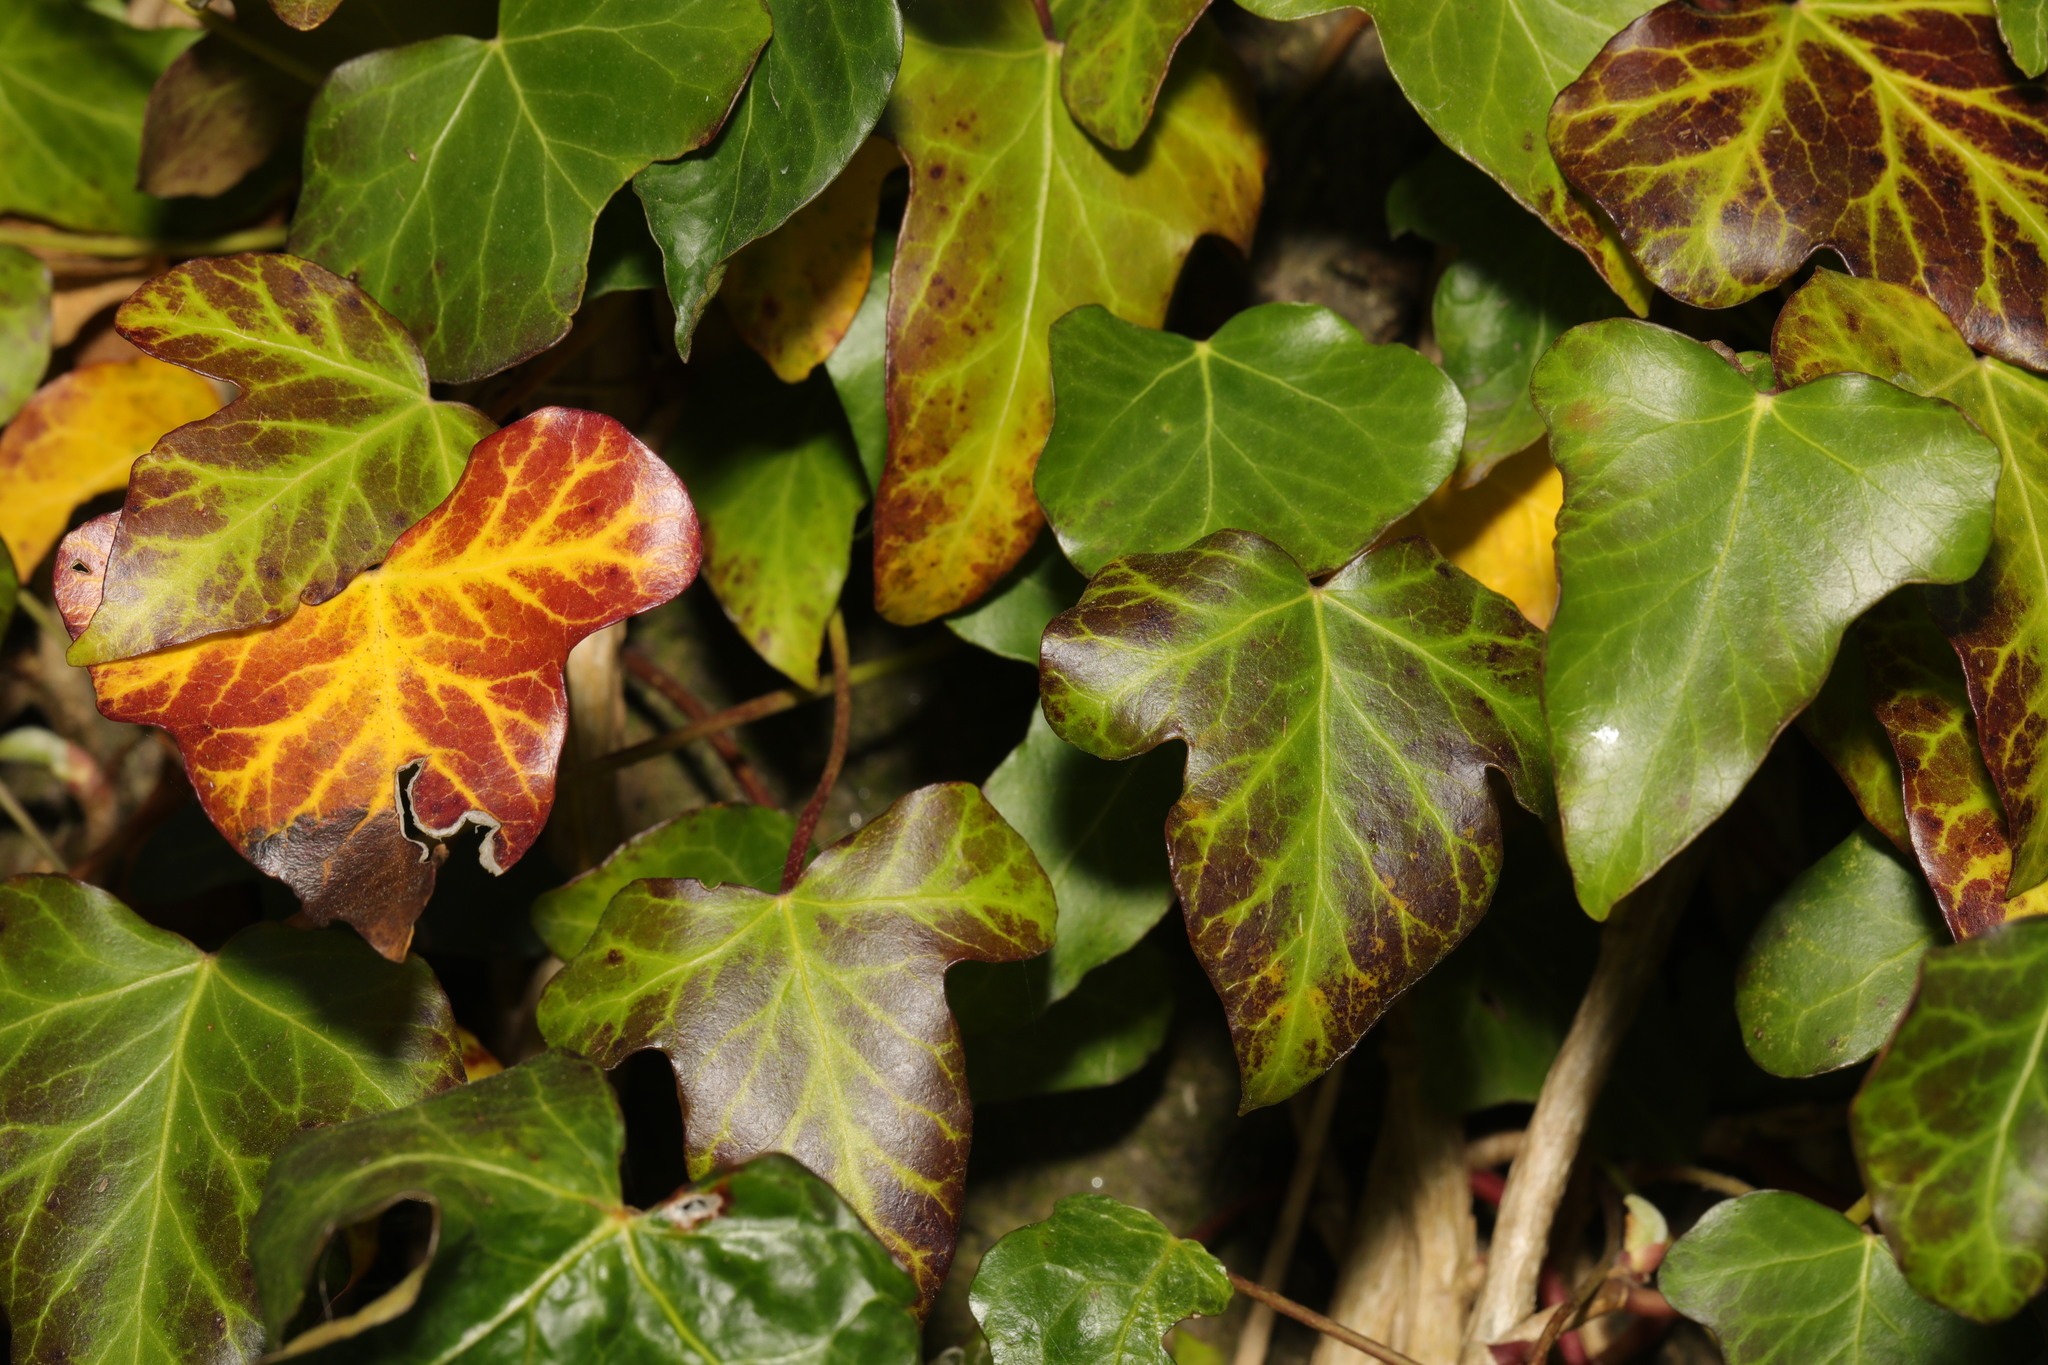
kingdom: Plantae
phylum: Tracheophyta
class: Magnoliopsida
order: Apiales
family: Araliaceae
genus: Hedera
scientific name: Hedera helix
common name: Ivy
